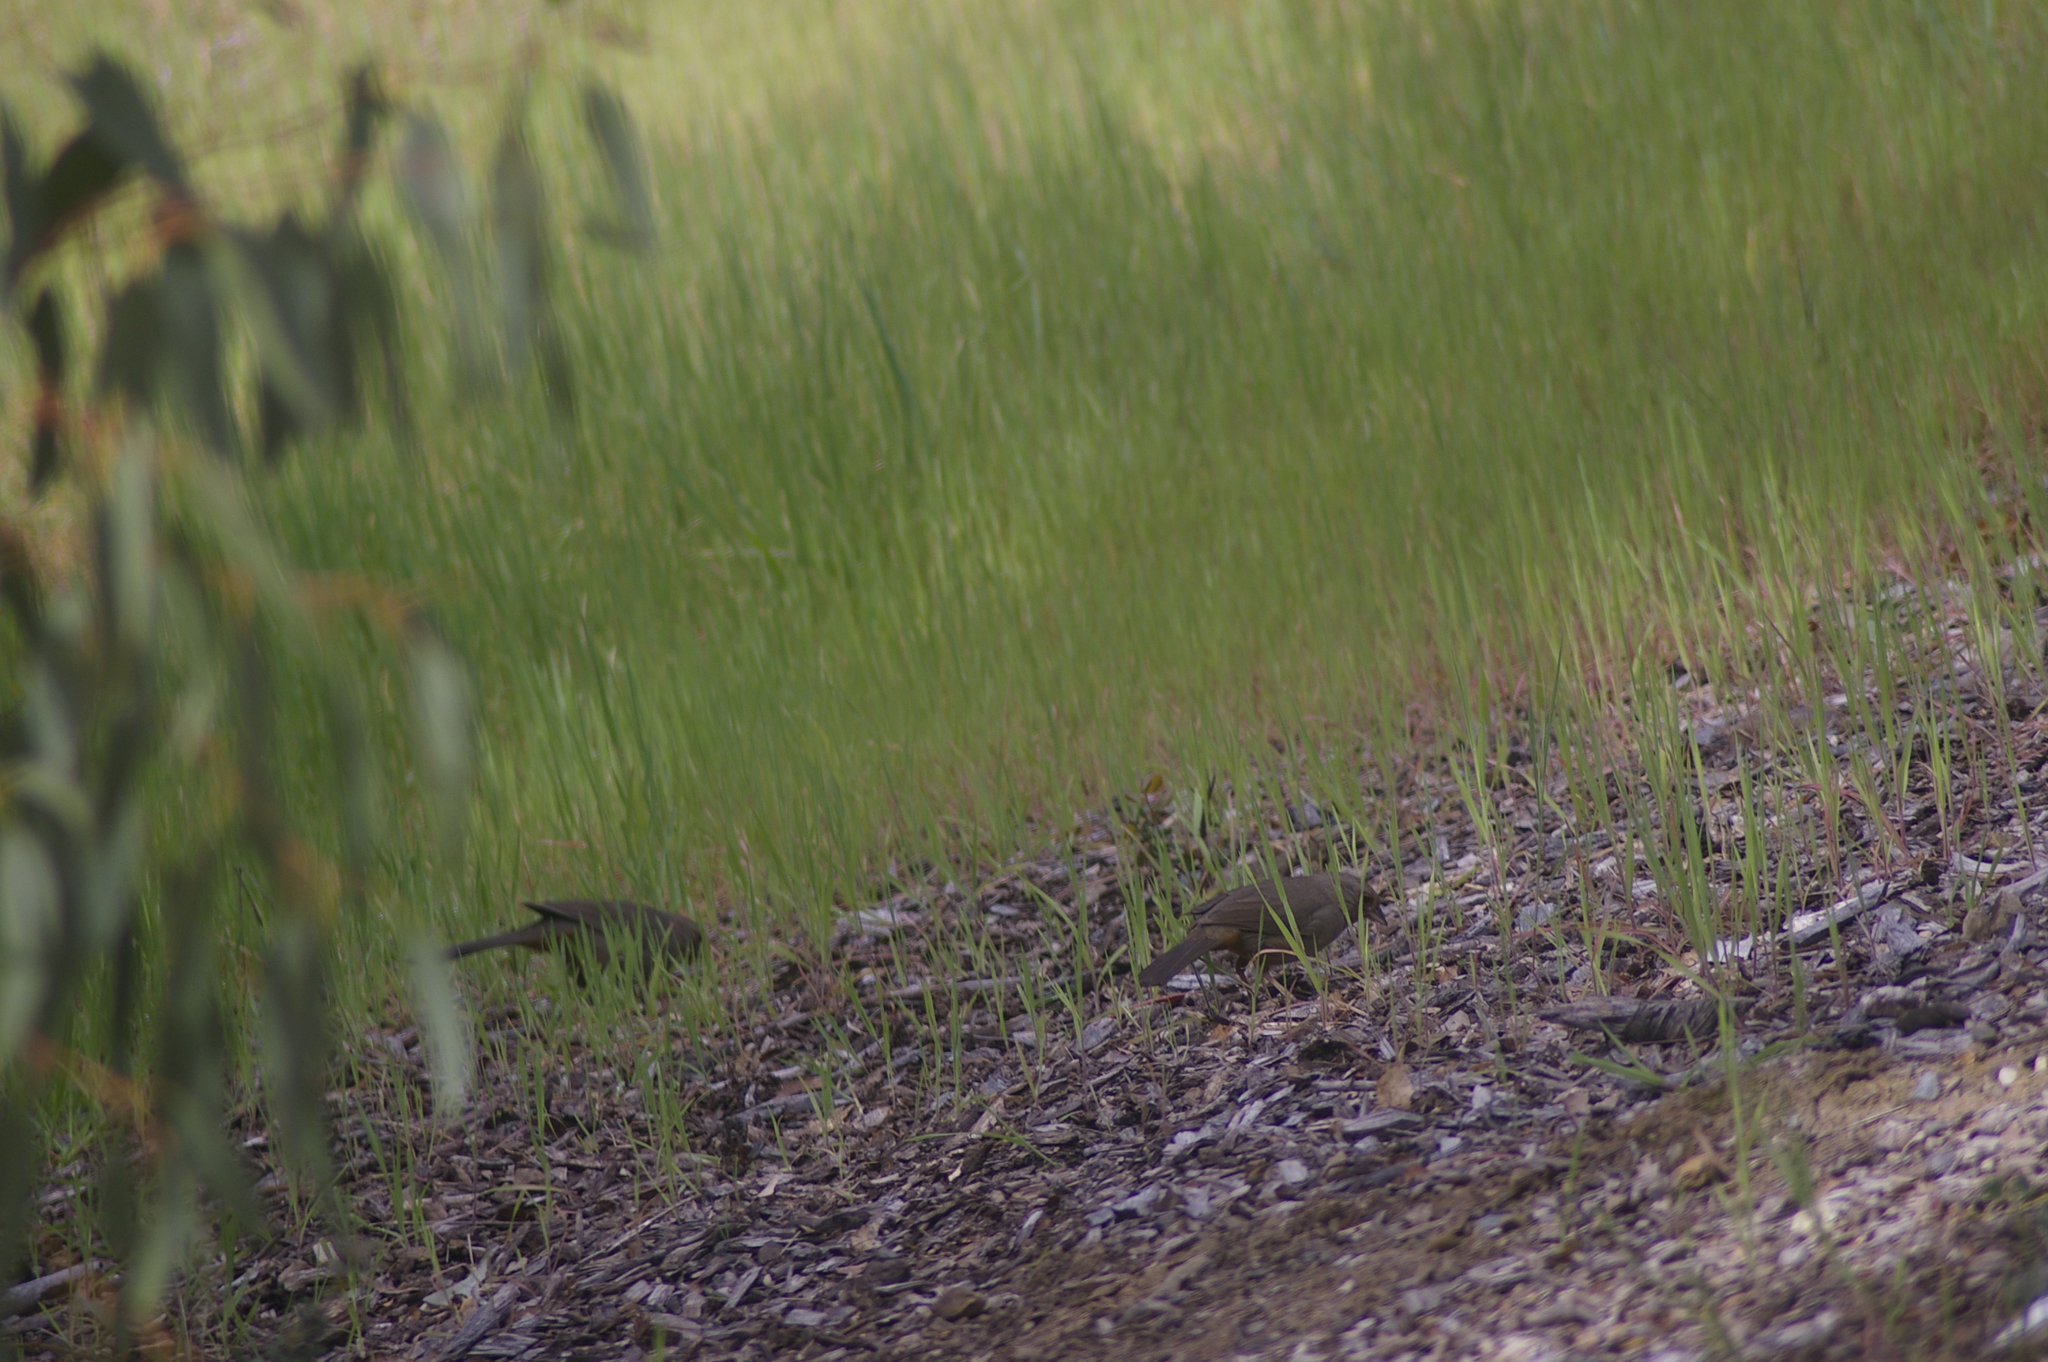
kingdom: Animalia
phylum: Chordata
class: Aves
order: Passeriformes
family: Passerellidae
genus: Melozone
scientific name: Melozone crissalis
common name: California towhee
